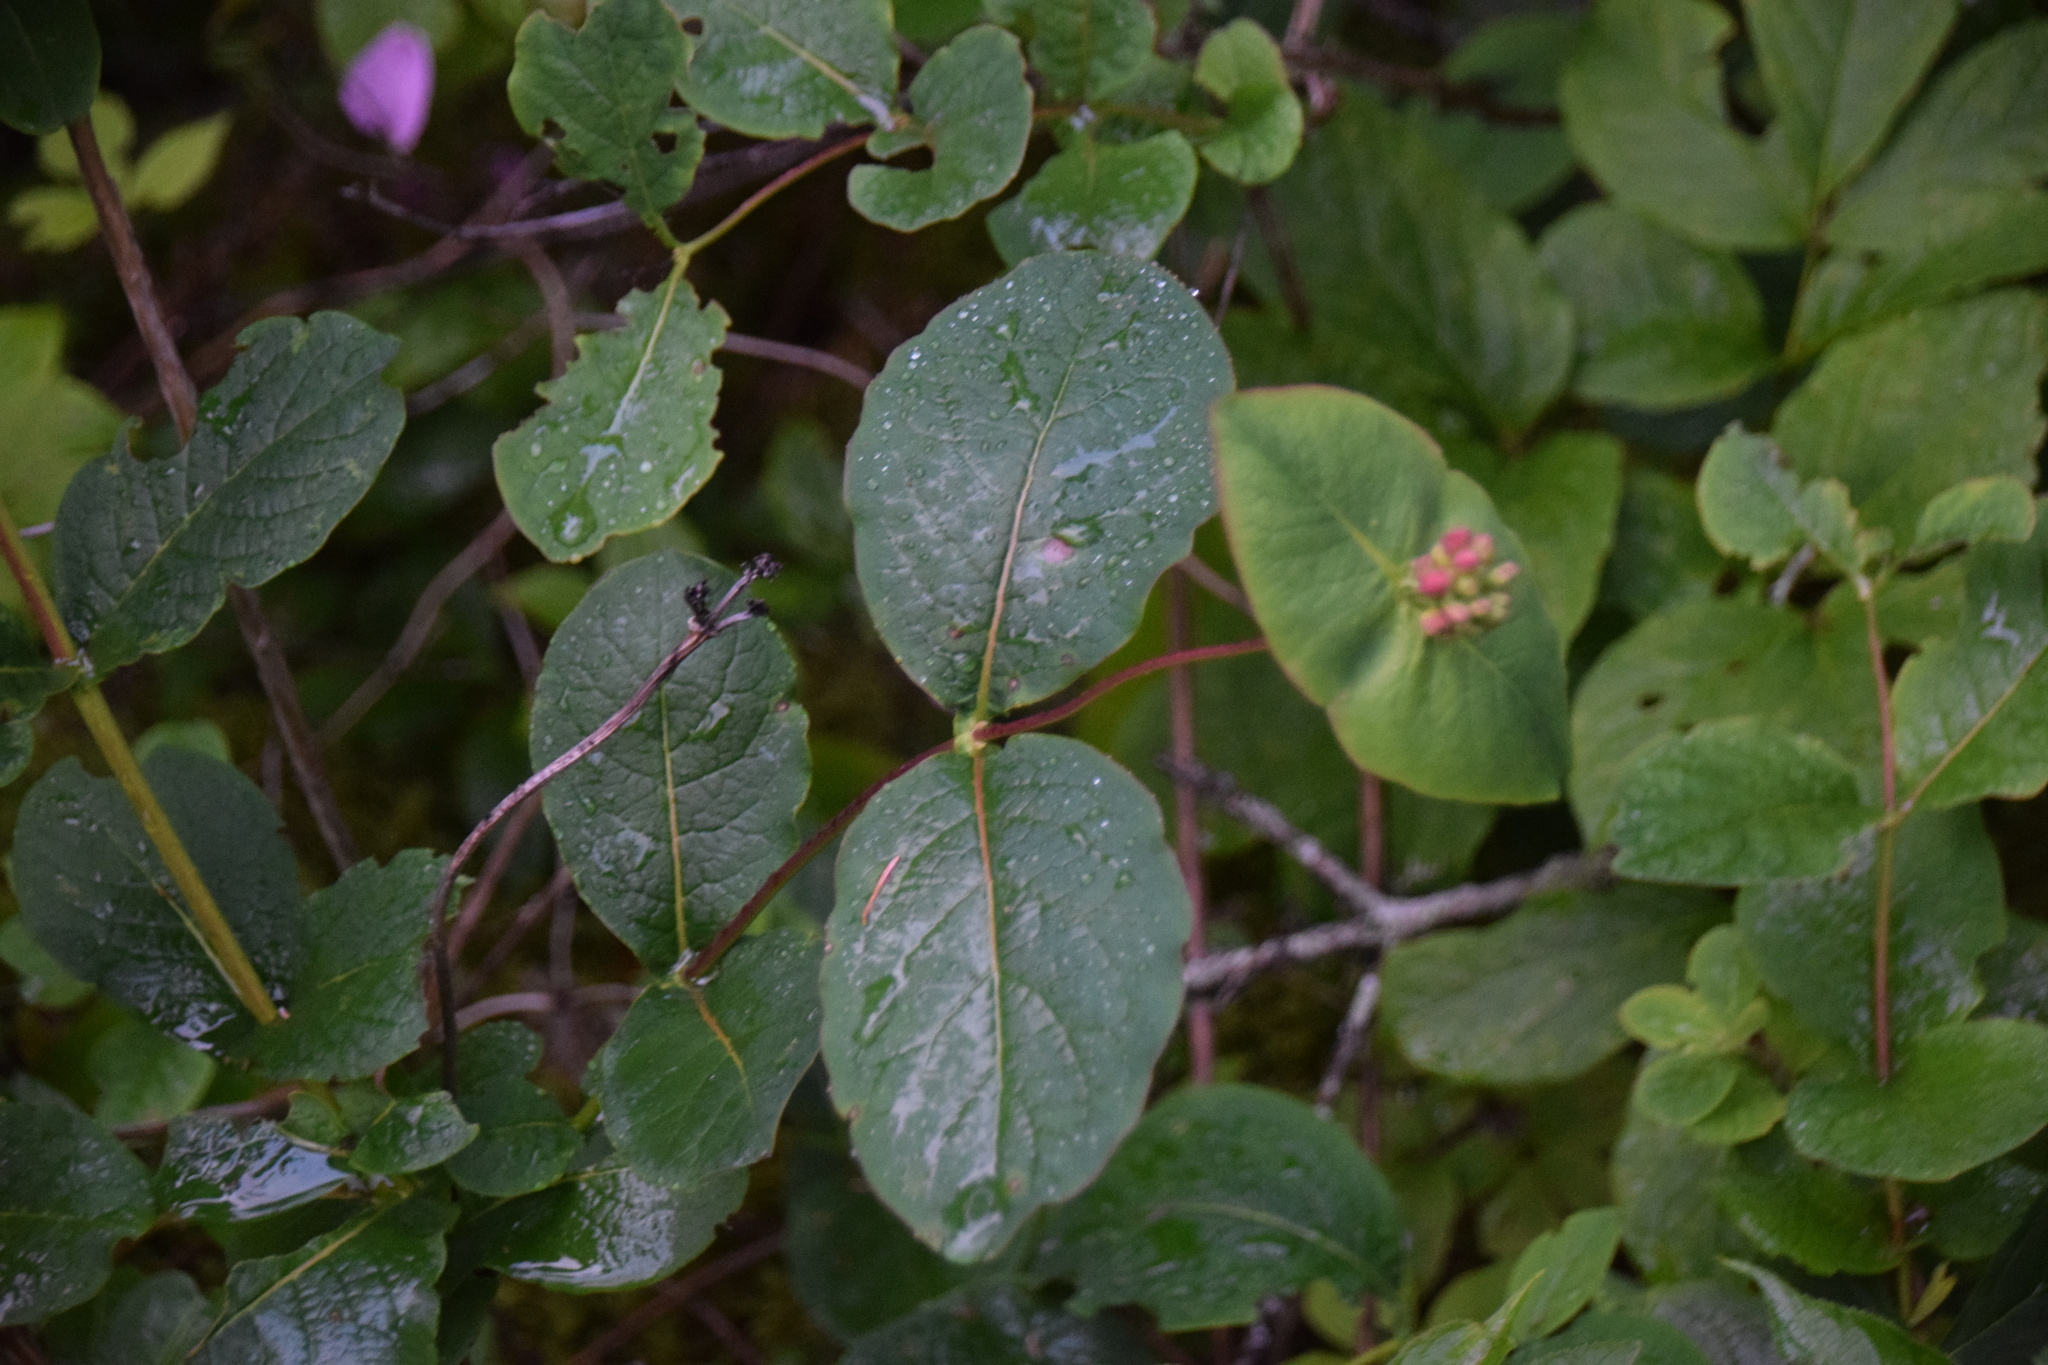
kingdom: Plantae
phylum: Tracheophyta
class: Magnoliopsida
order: Dipsacales
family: Caprifoliaceae
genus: Lonicera
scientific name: Lonicera dioica
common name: Limber honeysuckle
